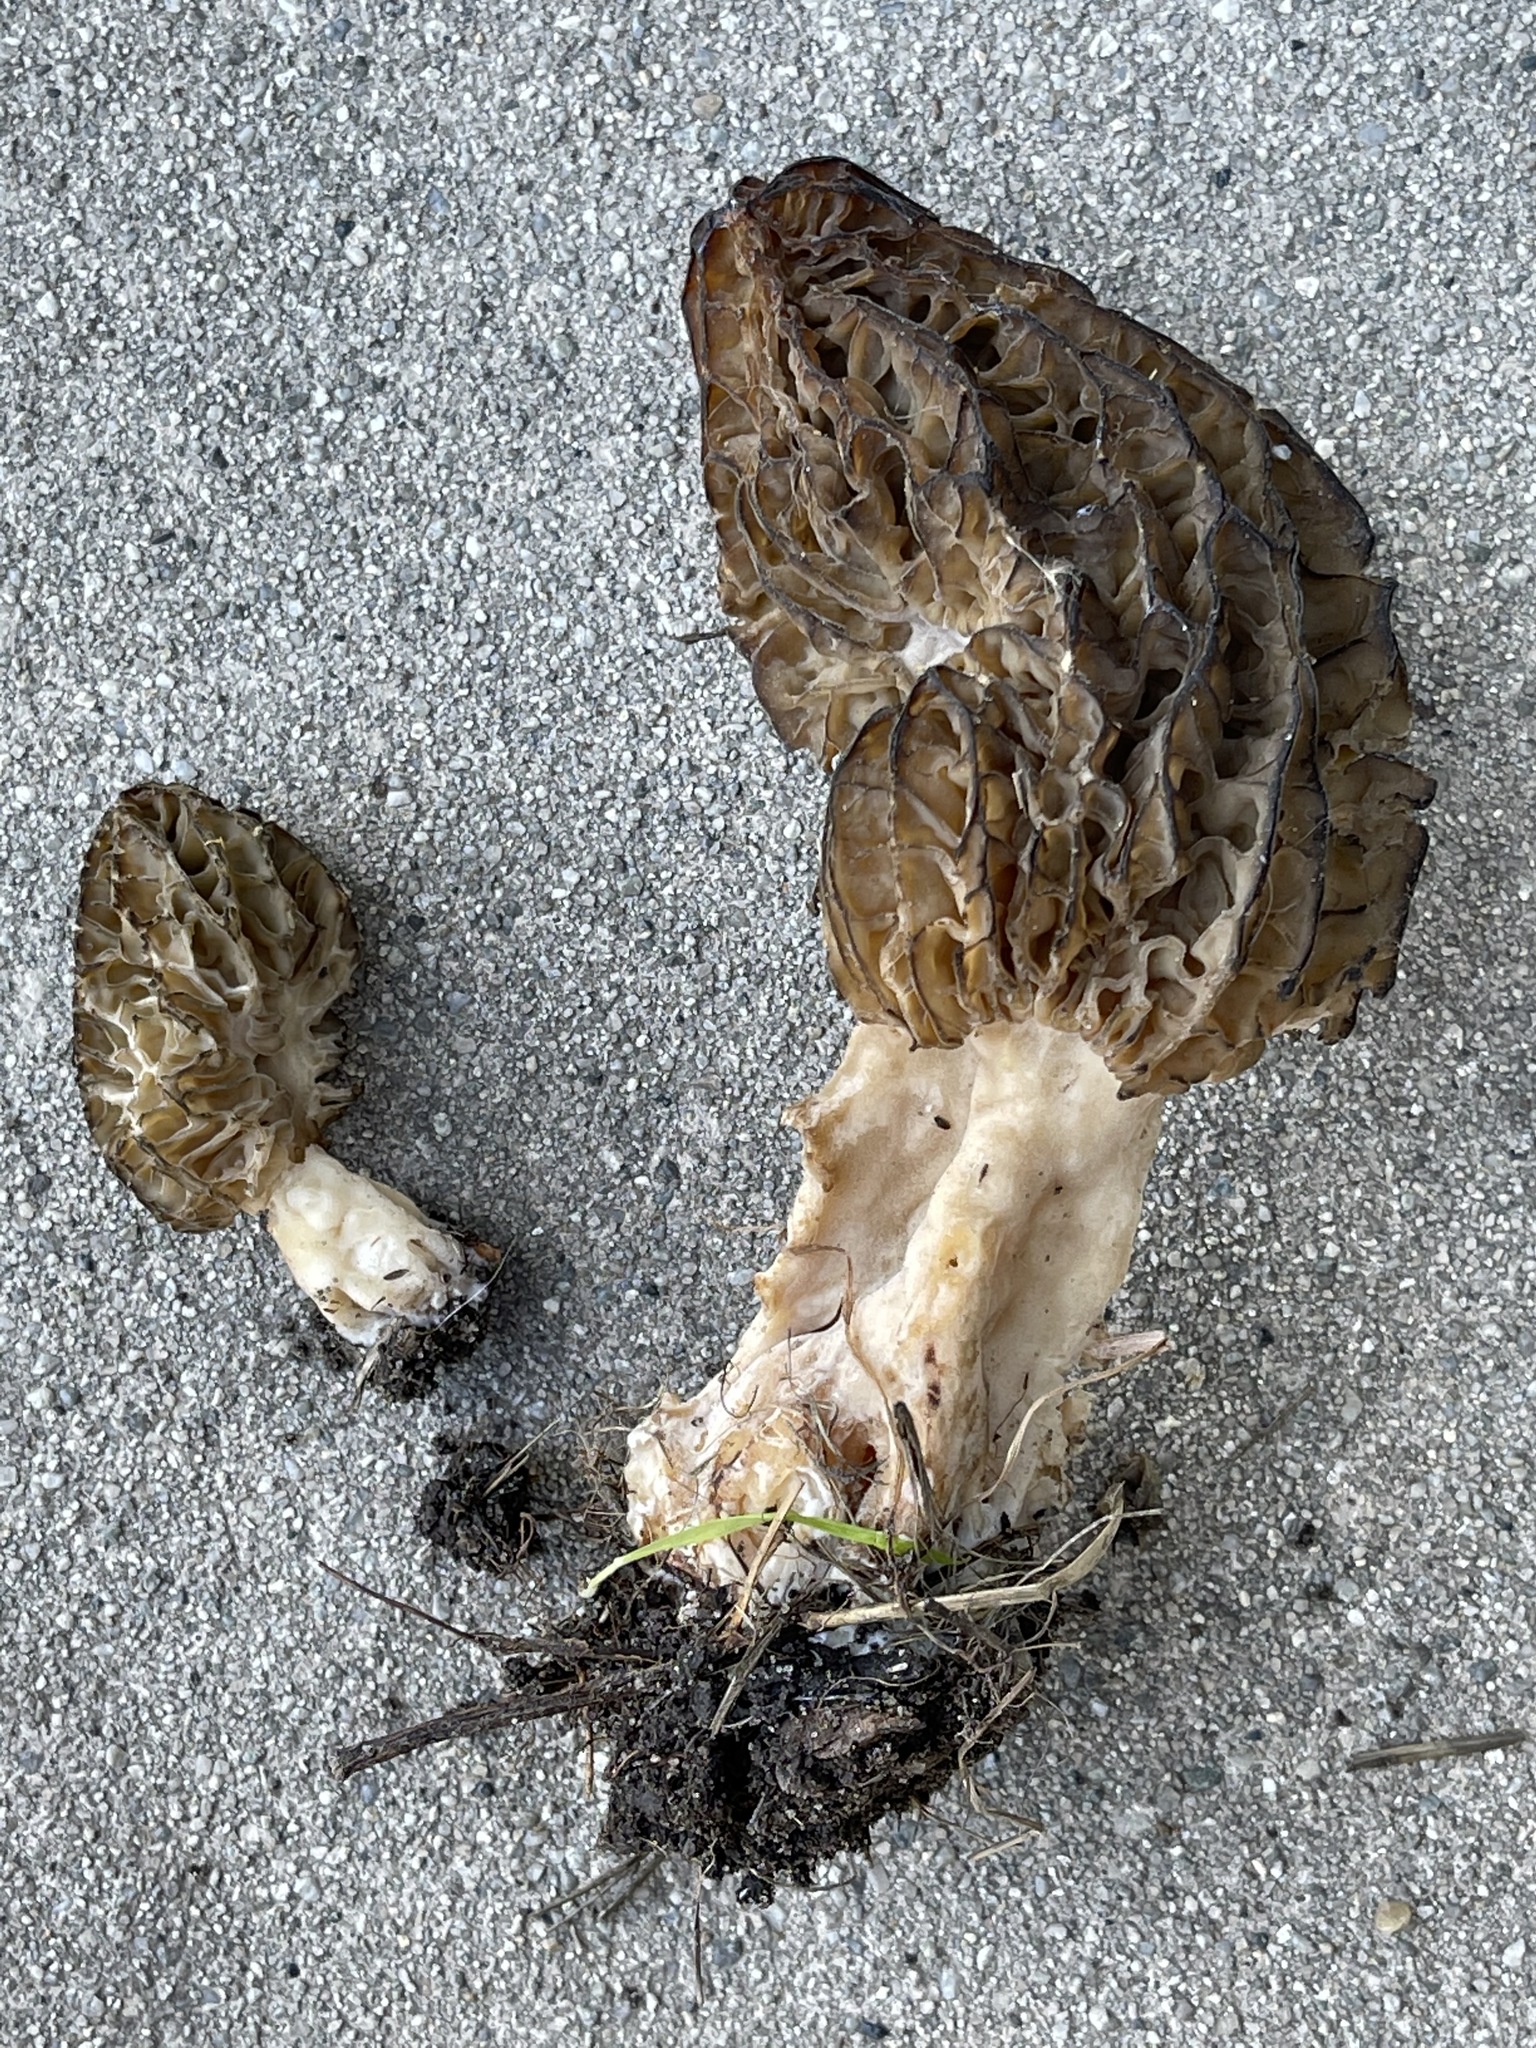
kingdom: Fungi
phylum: Ascomycota
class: Pezizomycetes
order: Pezizales
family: Morchellaceae
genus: Morchella
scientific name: Morchella importuna
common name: Landscaping black morel
